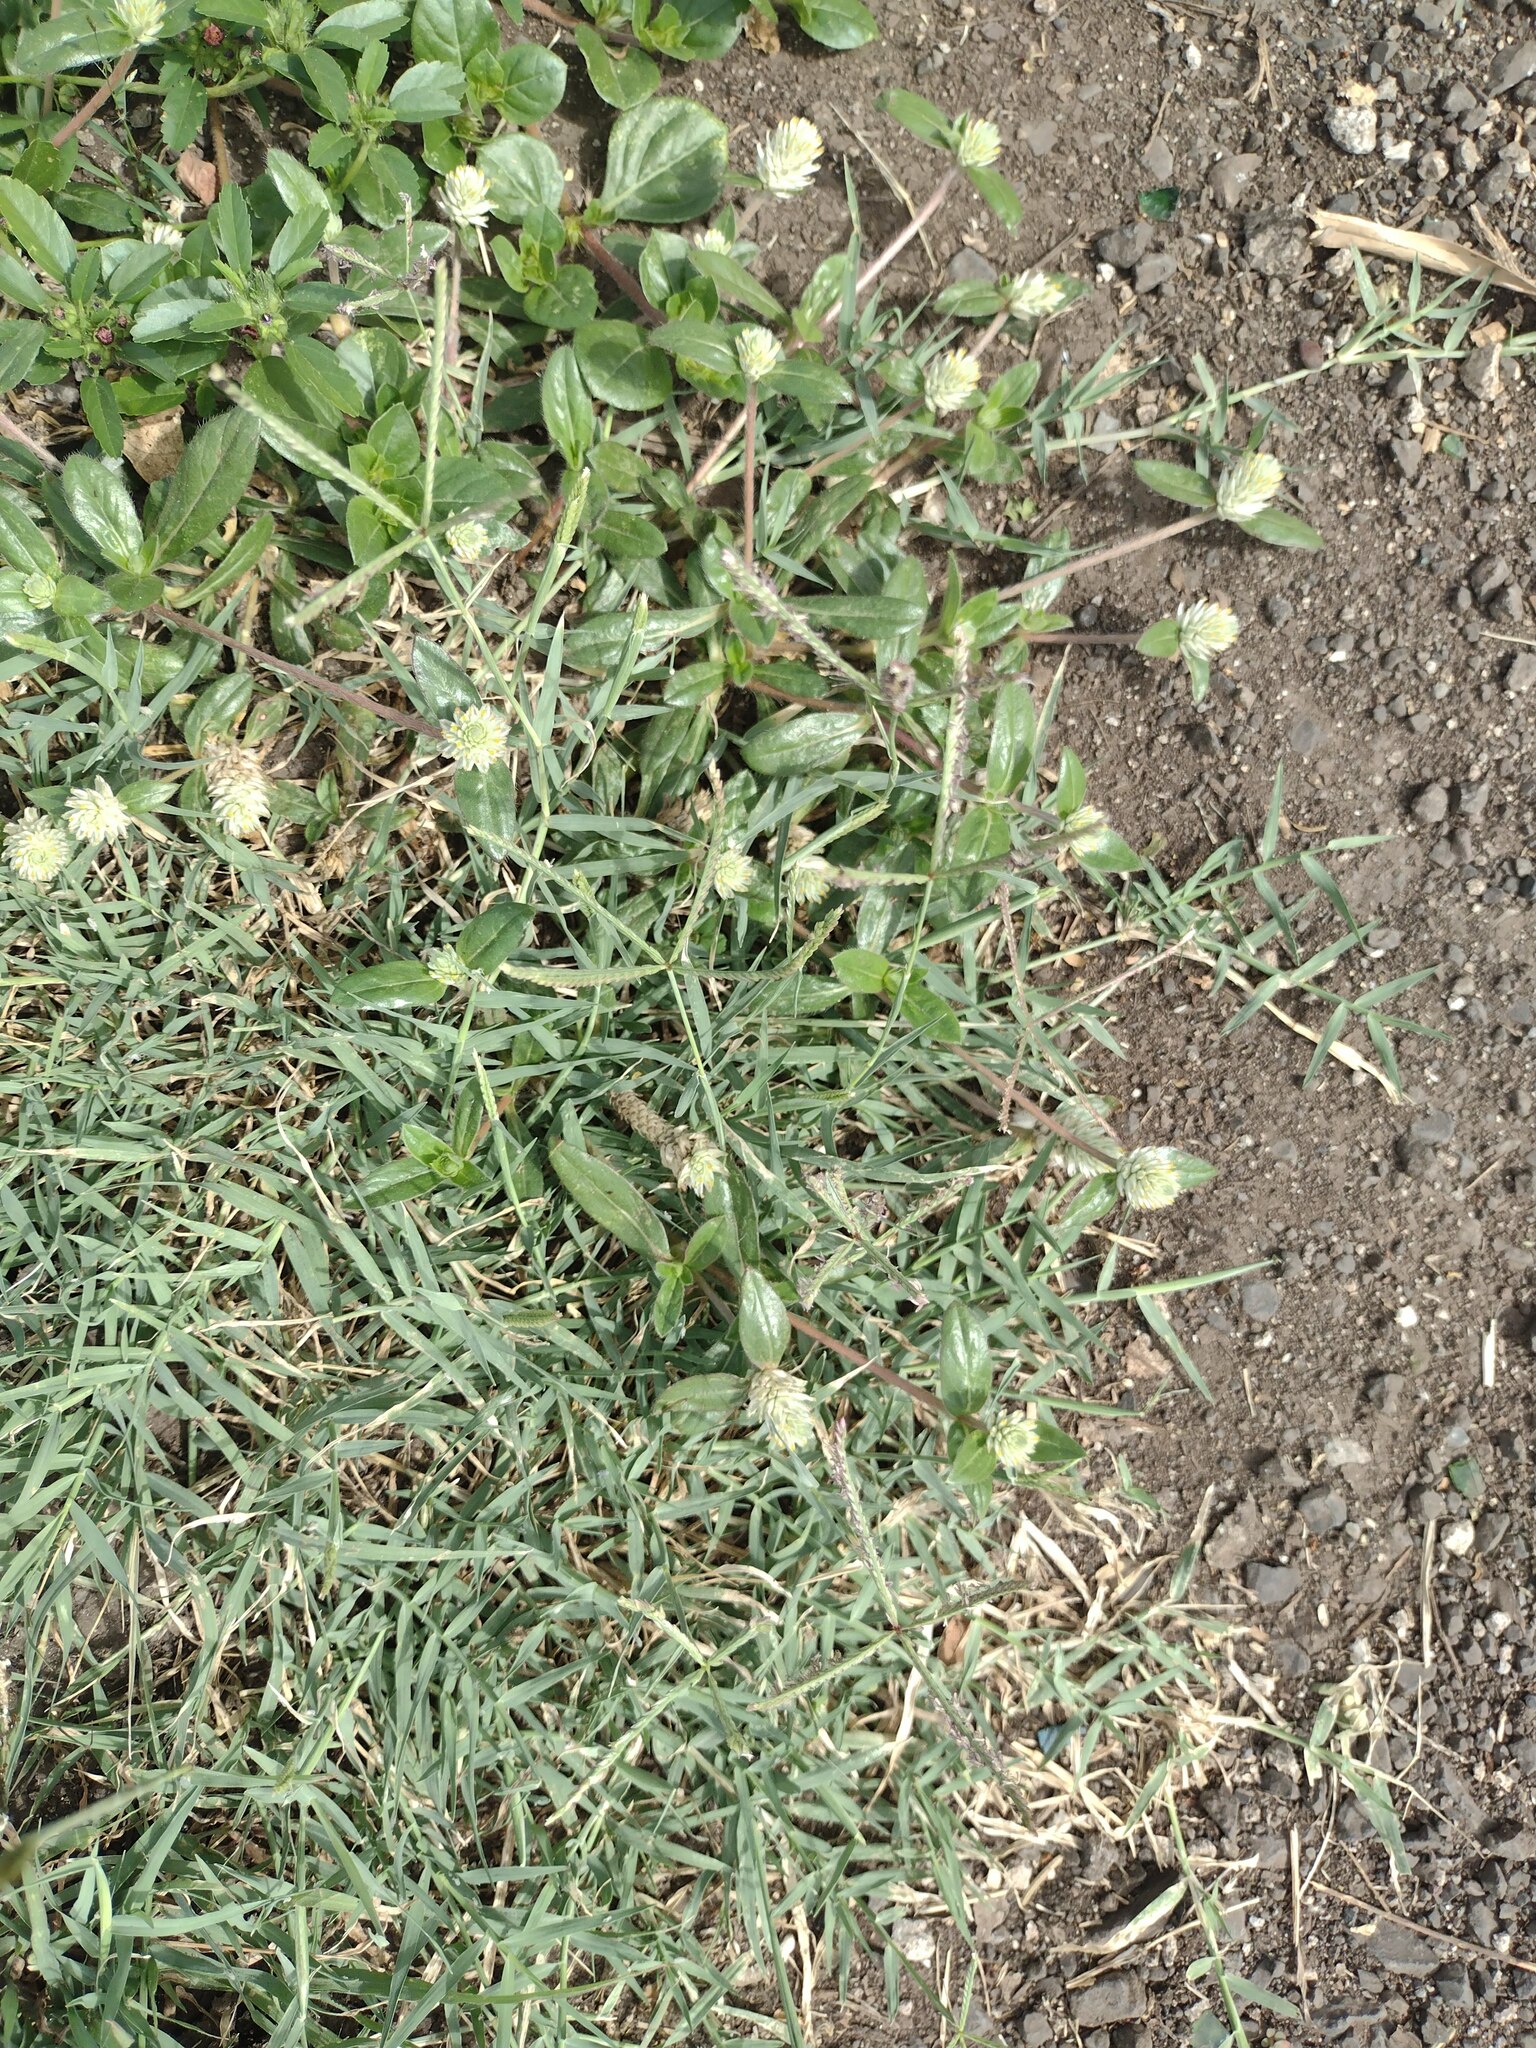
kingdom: Plantae
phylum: Tracheophyta
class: Magnoliopsida
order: Caryophyllales
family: Amaranthaceae
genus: Gomphrena
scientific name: Gomphrena celosioides
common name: Gomphrena-weed
